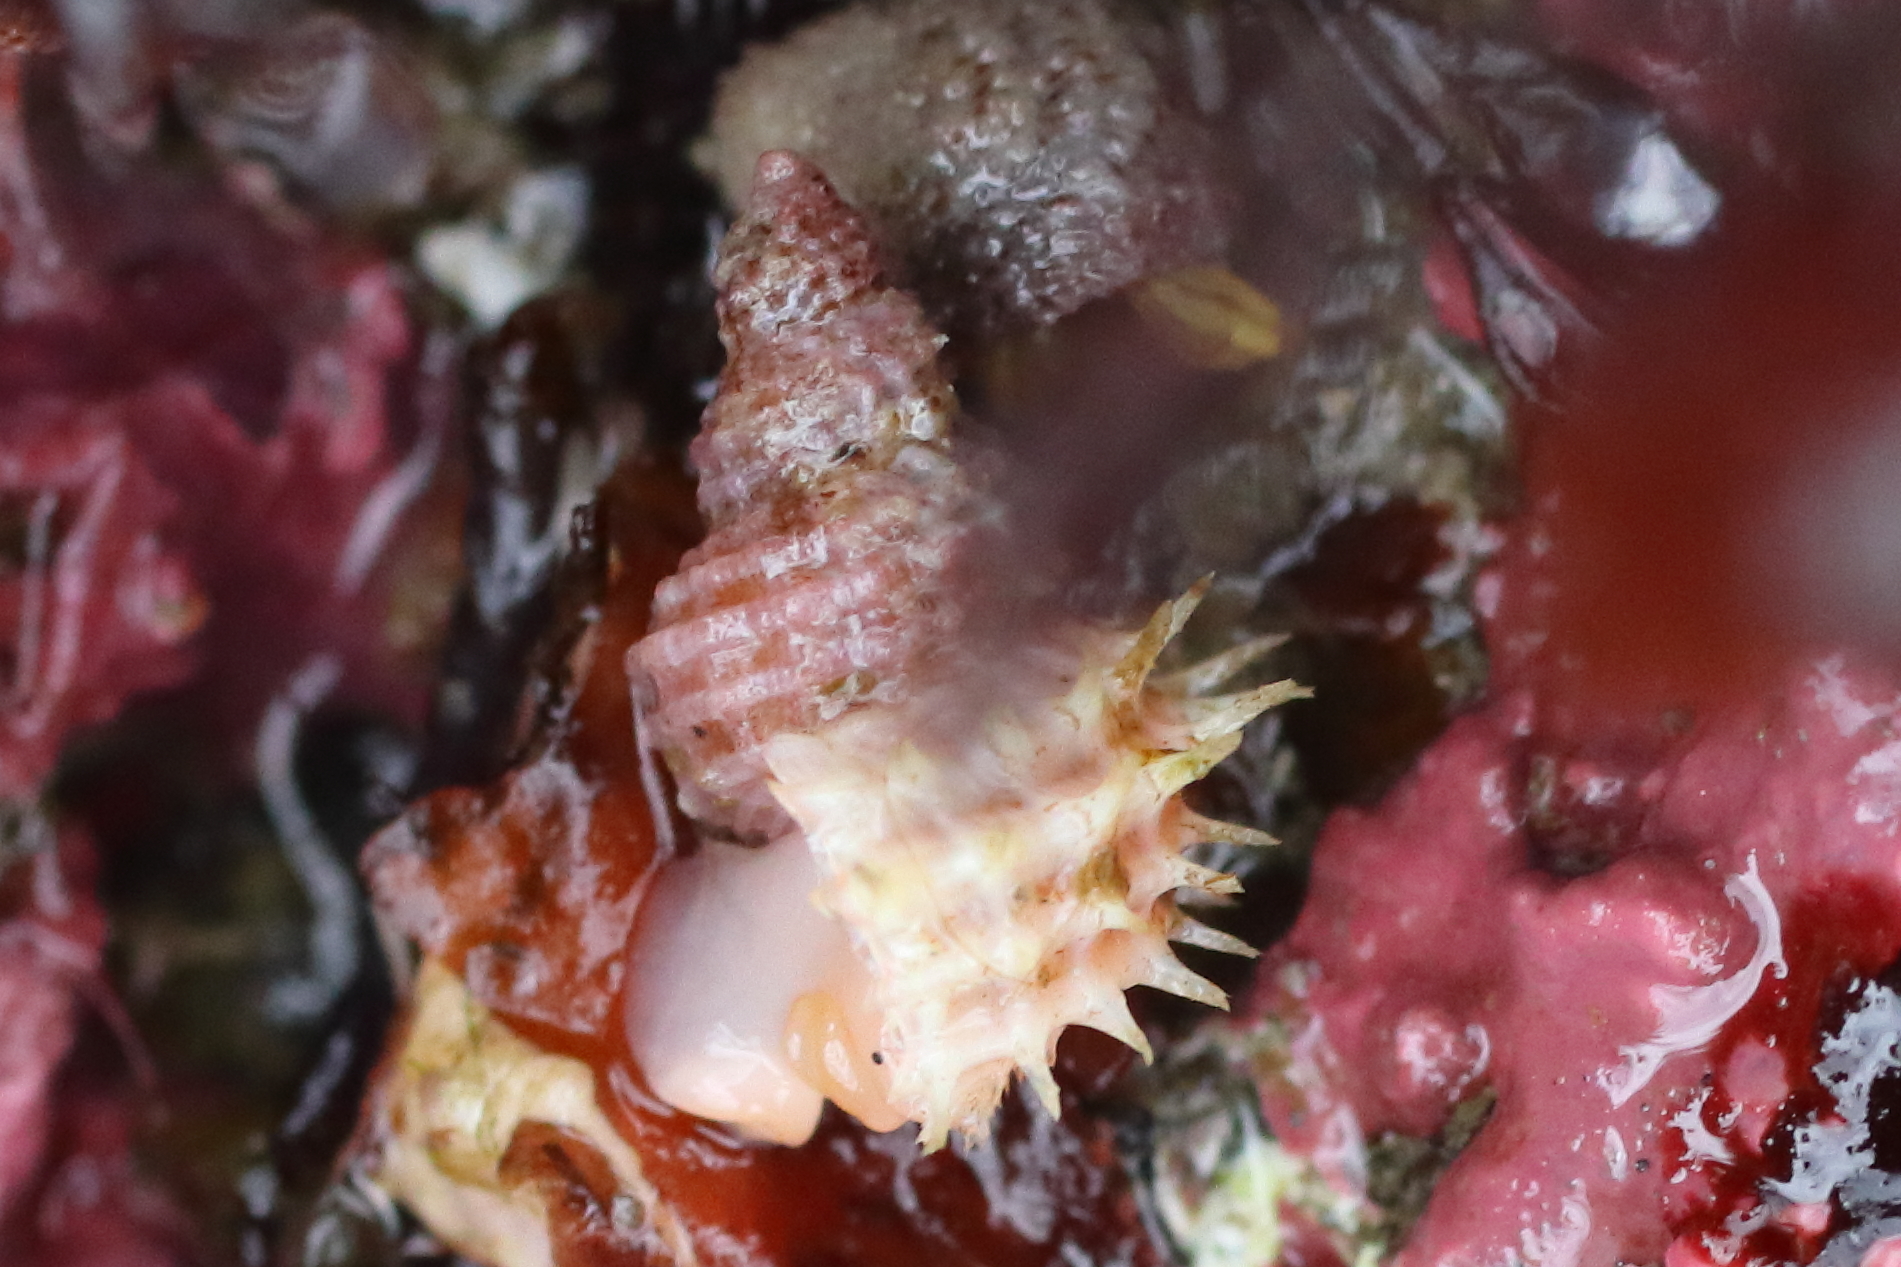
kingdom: Animalia
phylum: Mollusca
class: Gastropoda
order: Littorinimorpha
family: Capulidae
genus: Trichotropis
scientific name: Trichotropis cancellata
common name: Cancellate hairysnail
